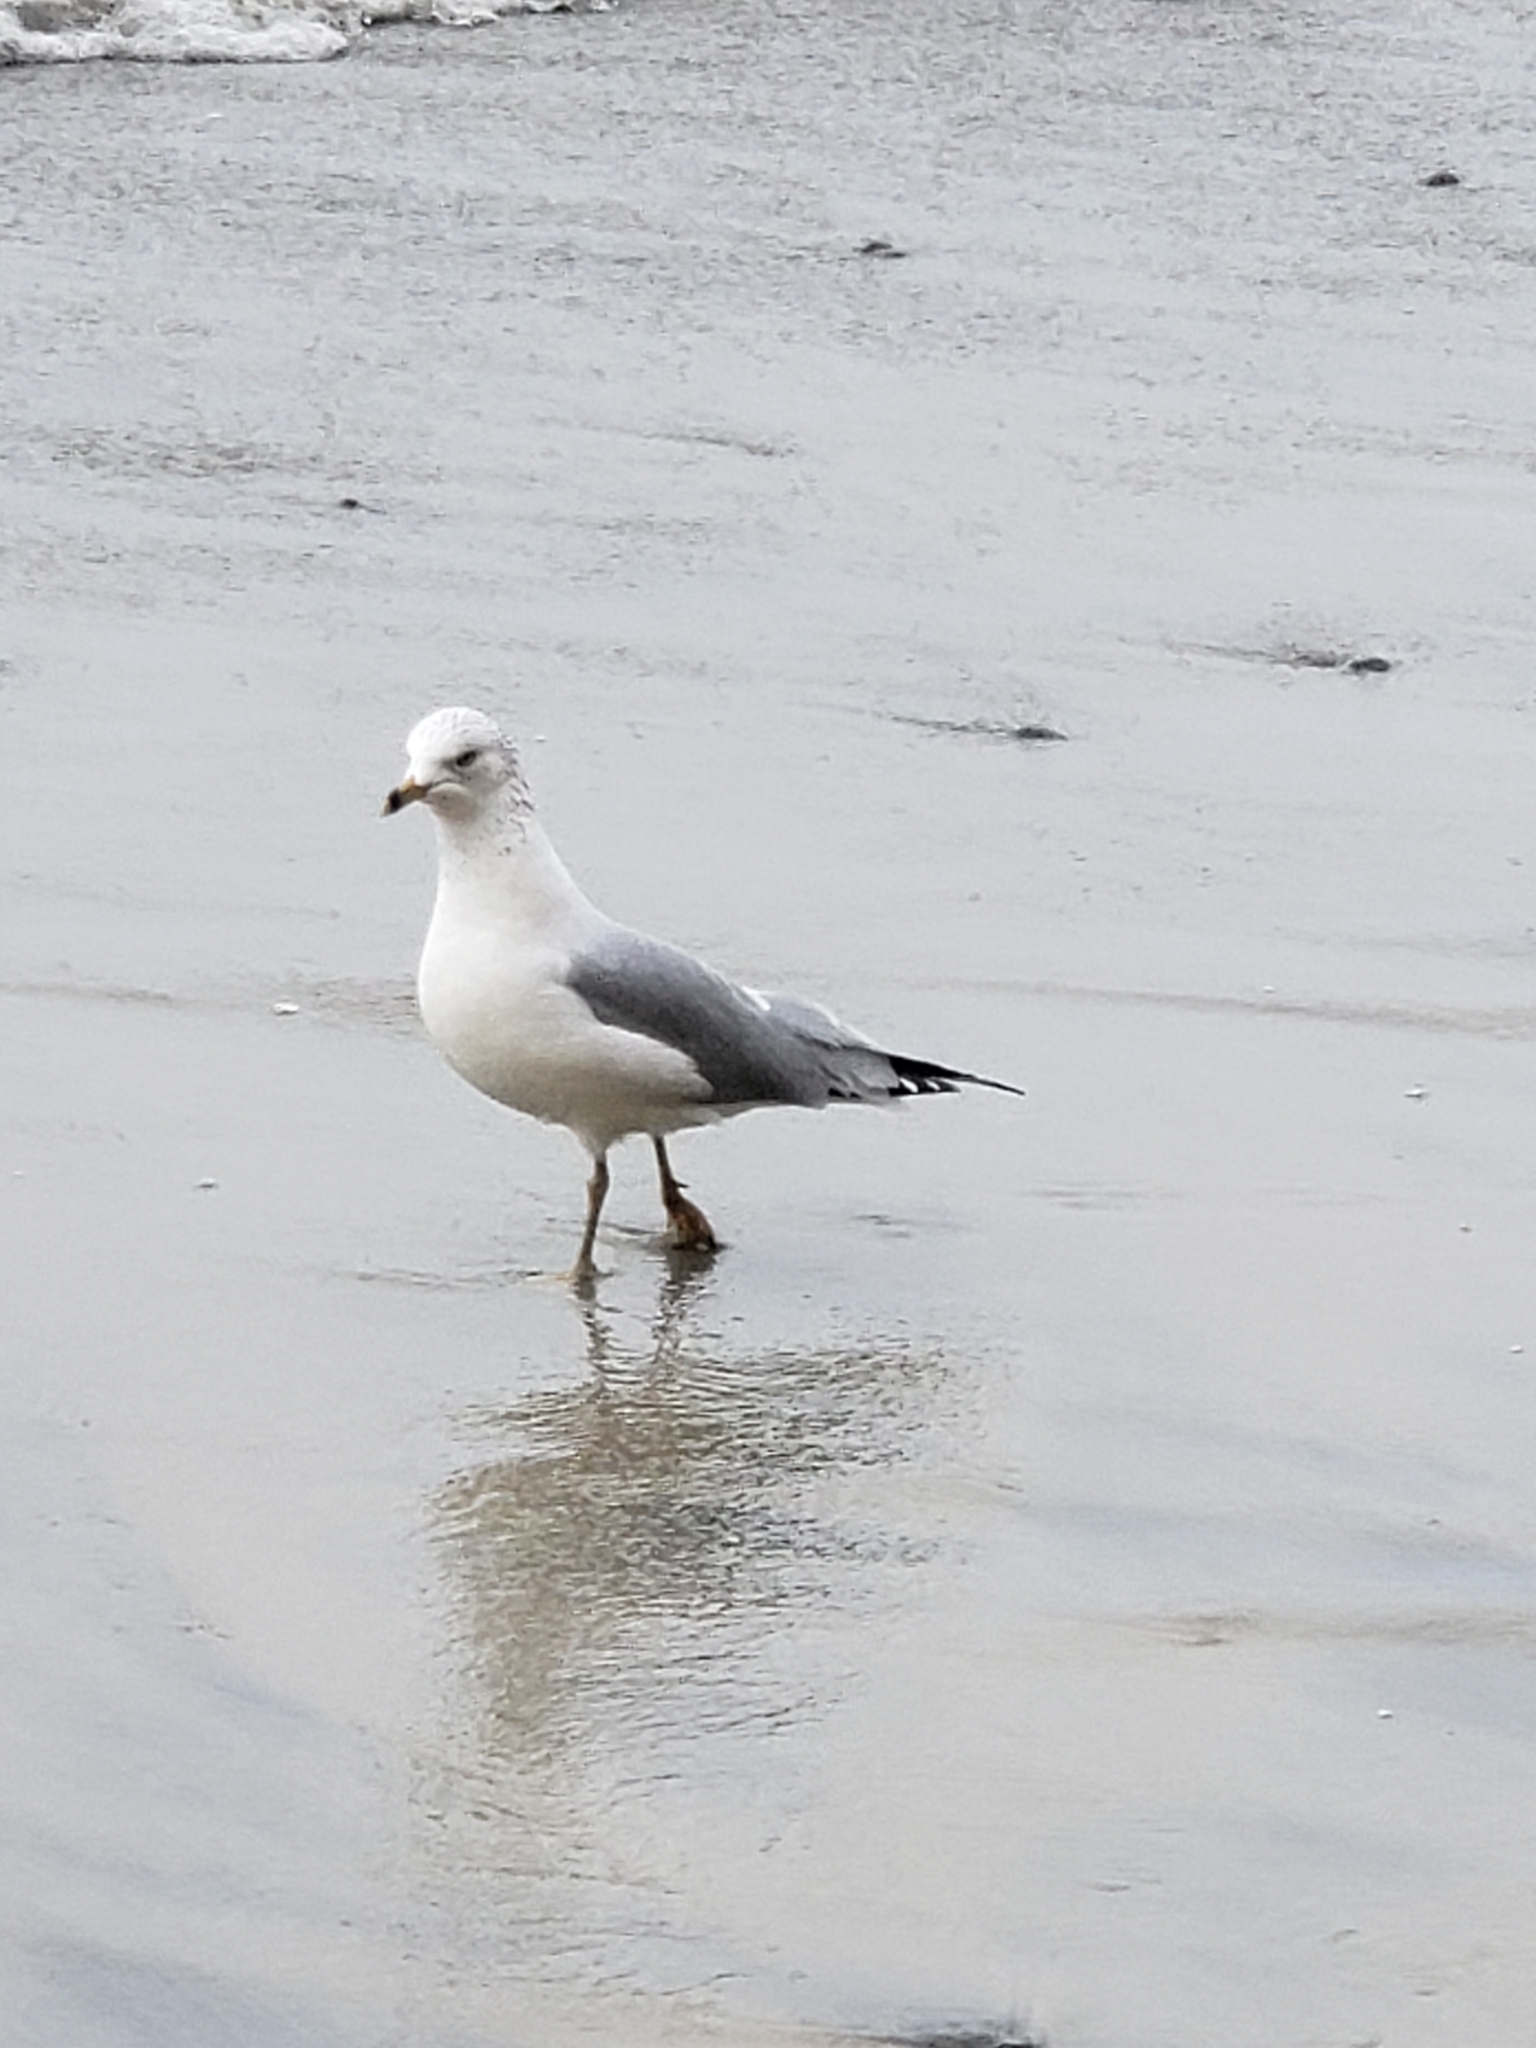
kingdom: Animalia
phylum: Chordata
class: Aves
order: Charadriiformes
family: Laridae
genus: Larus
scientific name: Larus delawarensis
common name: Ring-billed gull
